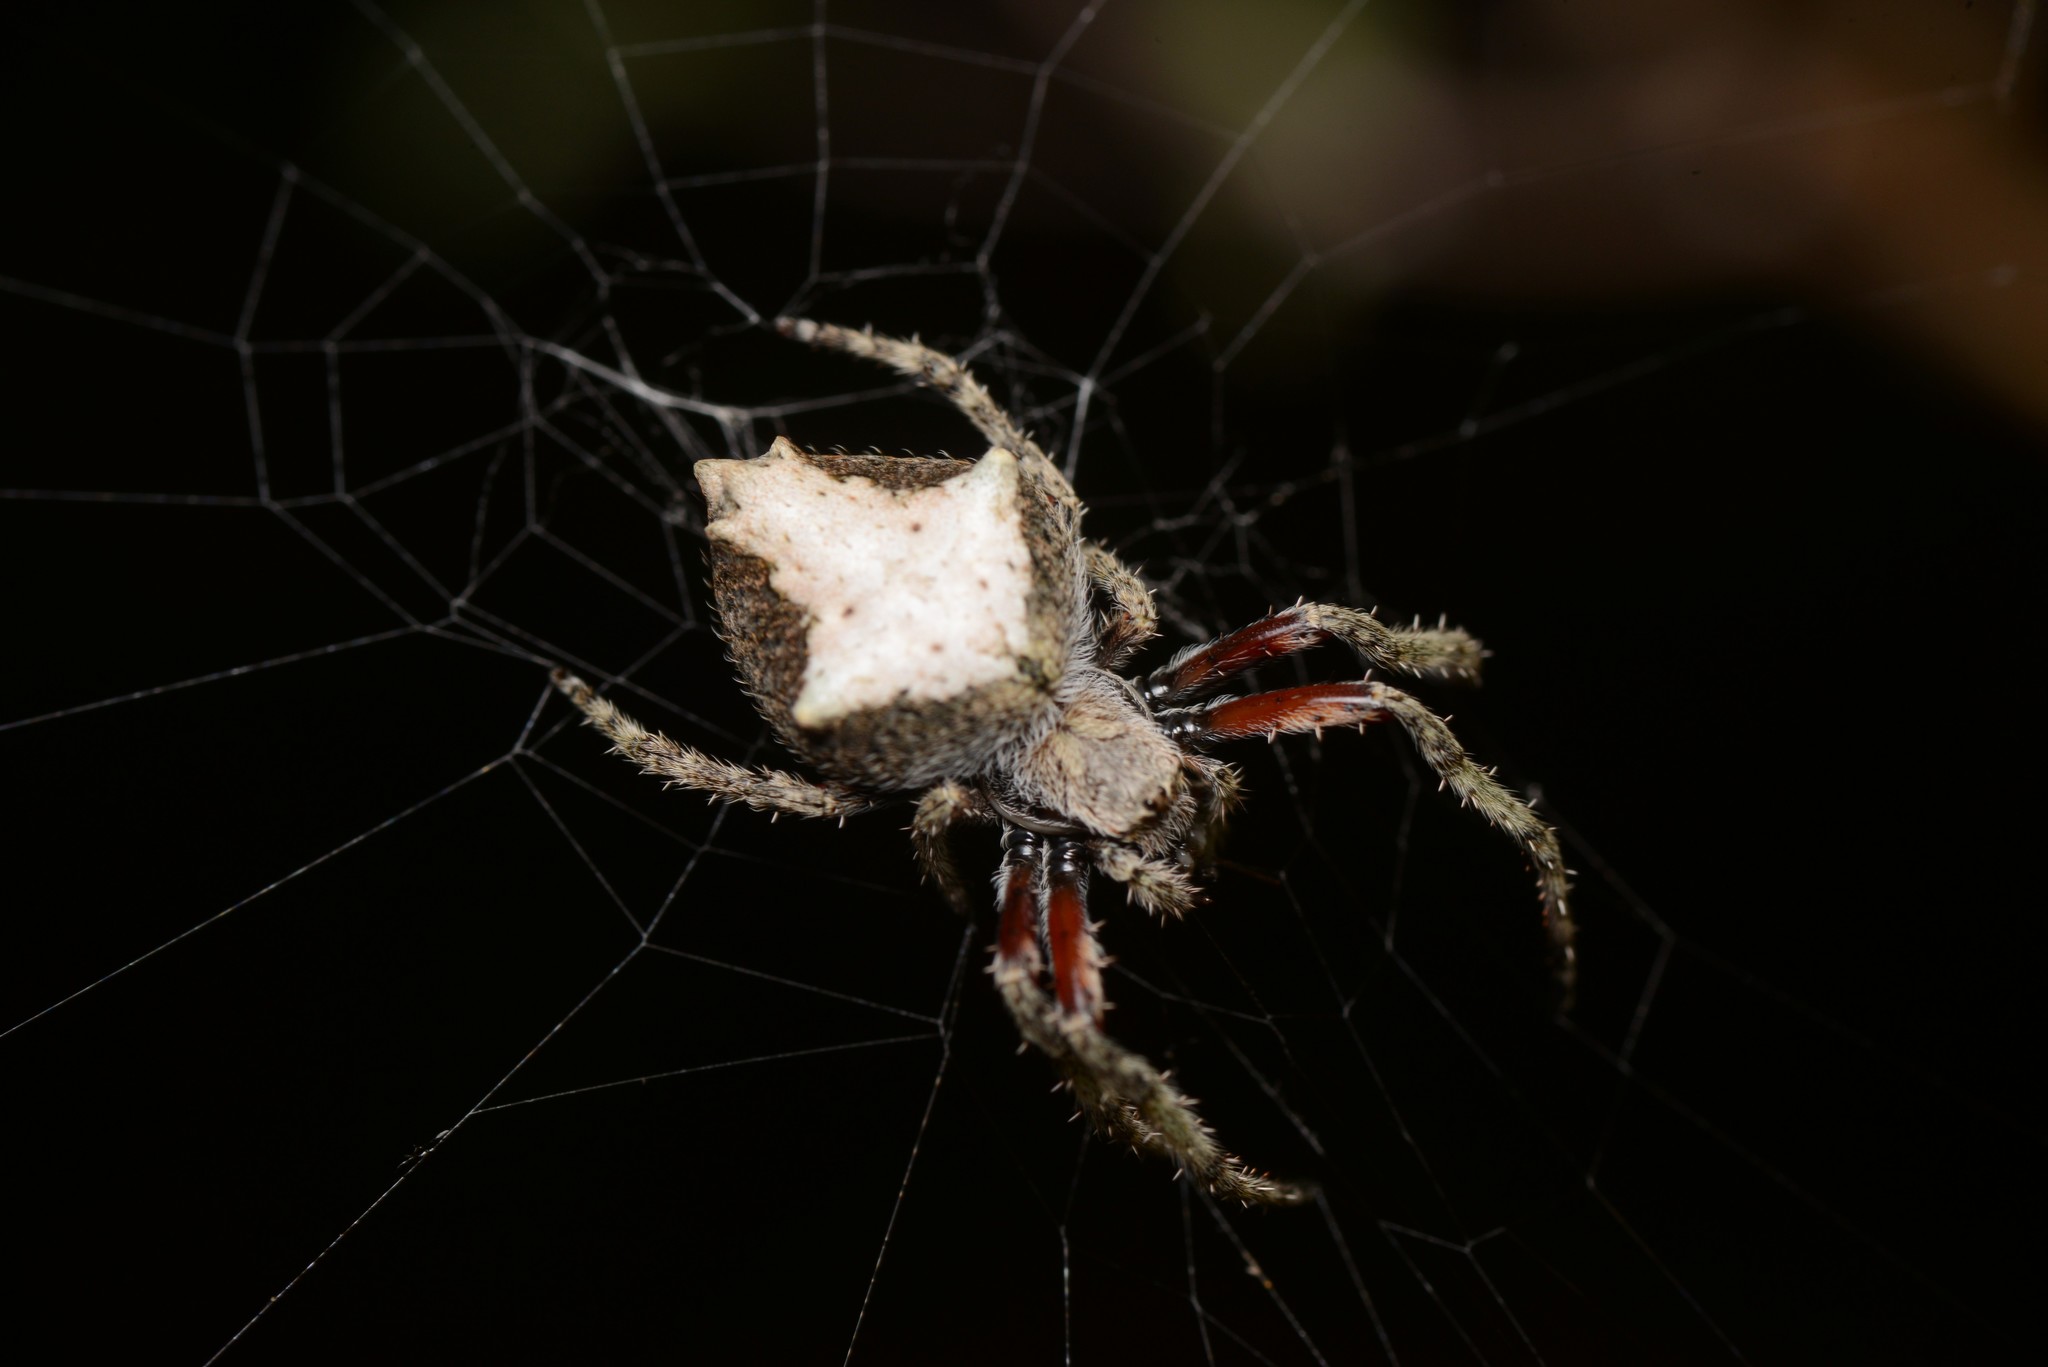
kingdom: Animalia
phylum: Arthropoda
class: Arachnida
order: Araneae
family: Araneidae
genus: Eriophora
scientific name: Eriophora pustulosa
